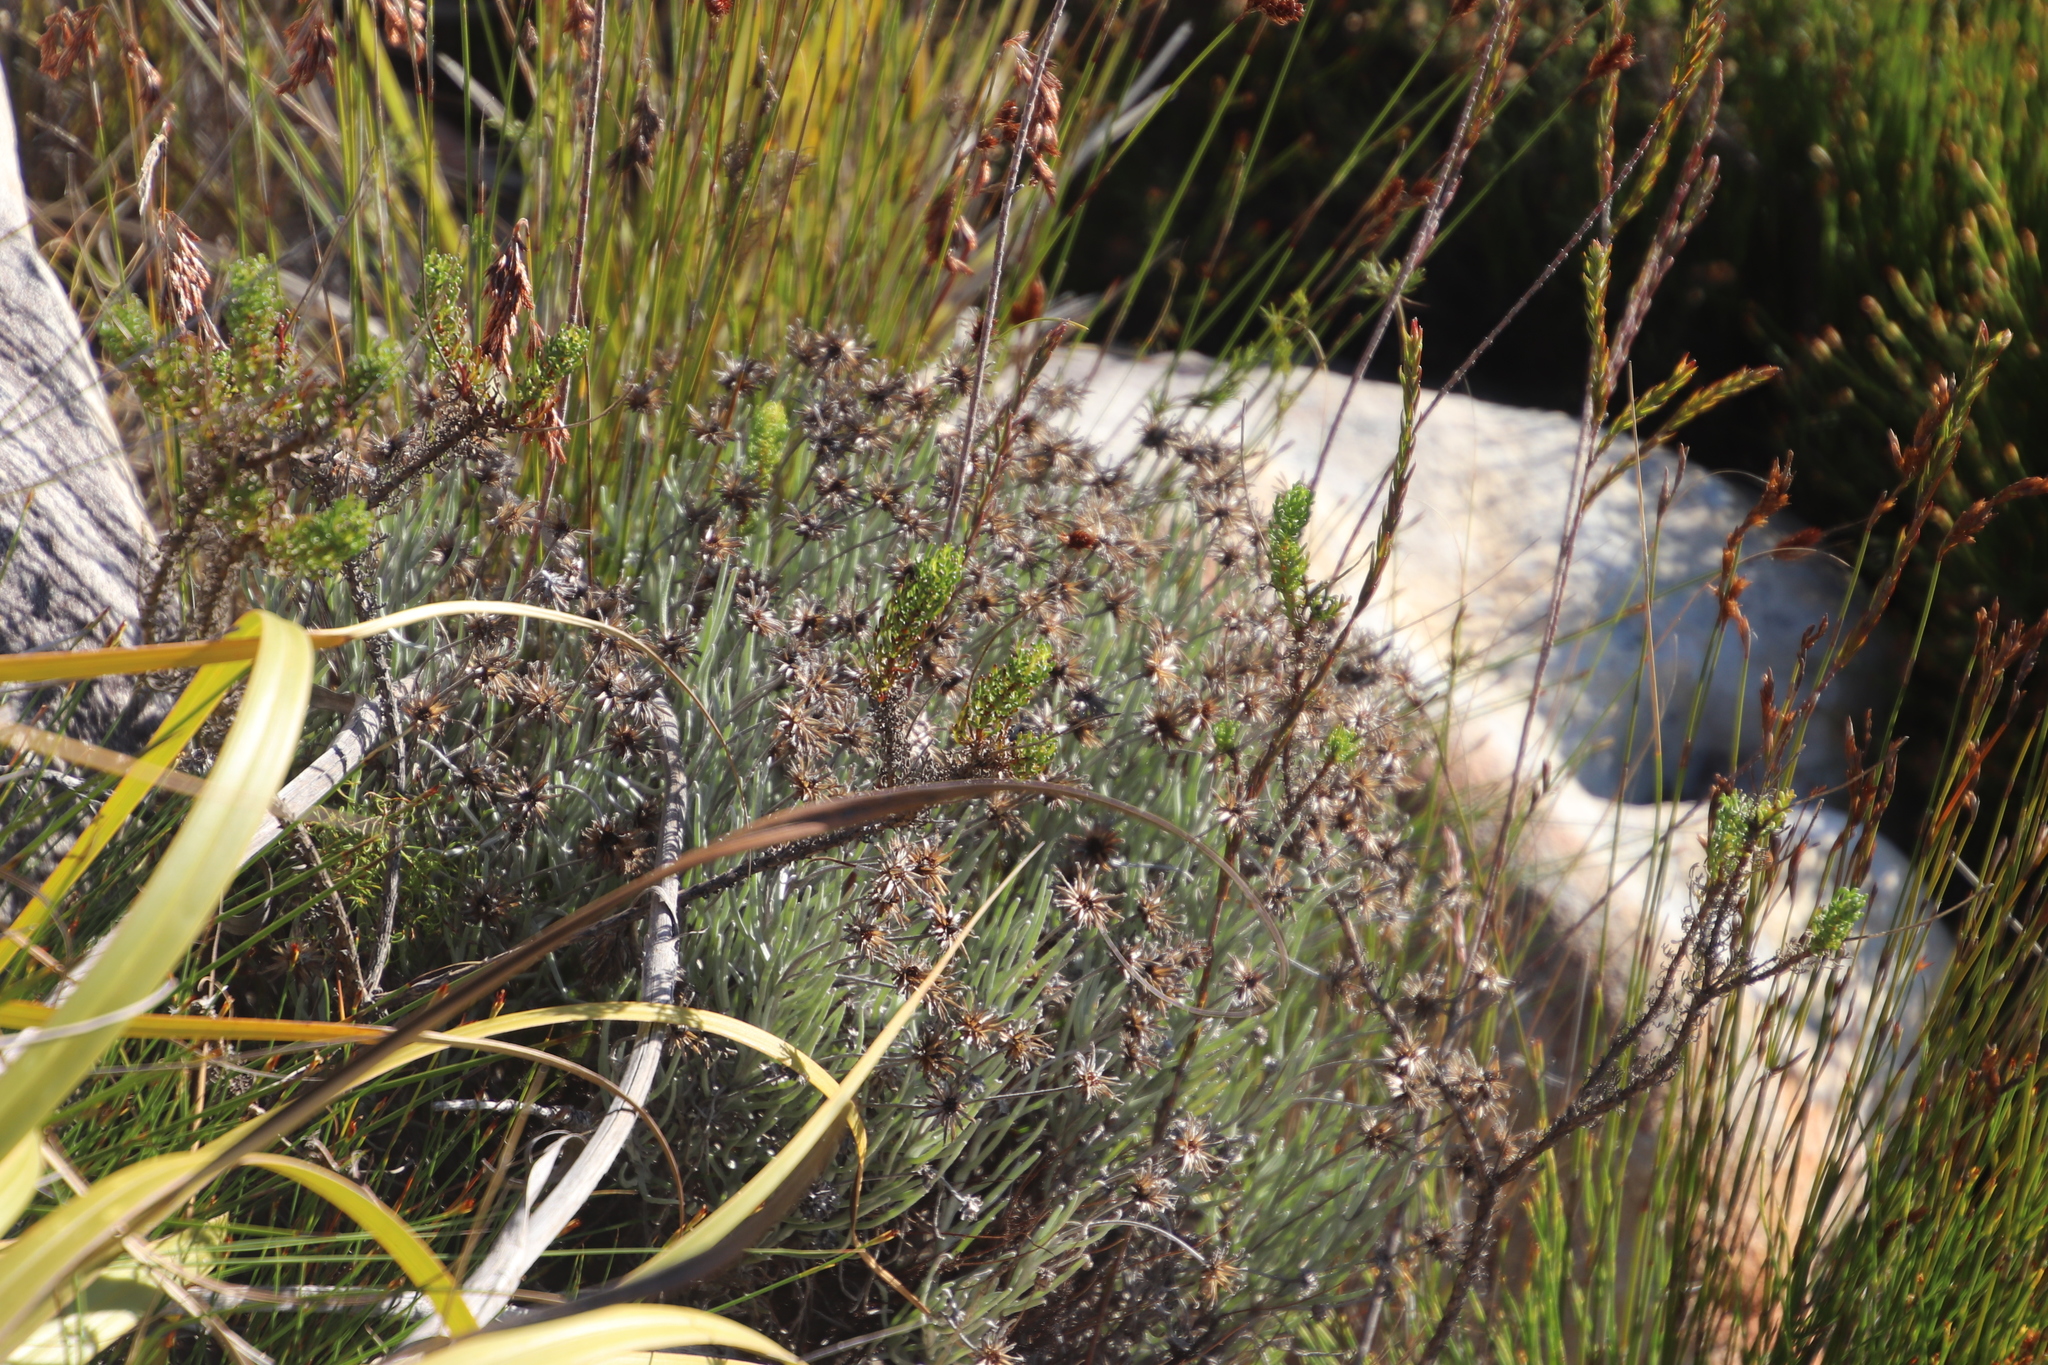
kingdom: Plantae
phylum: Tracheophyta
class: Magnoliopsida
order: Asterales
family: Asteraceae
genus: Syncarpha
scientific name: Syncarpha gnaphaloides
